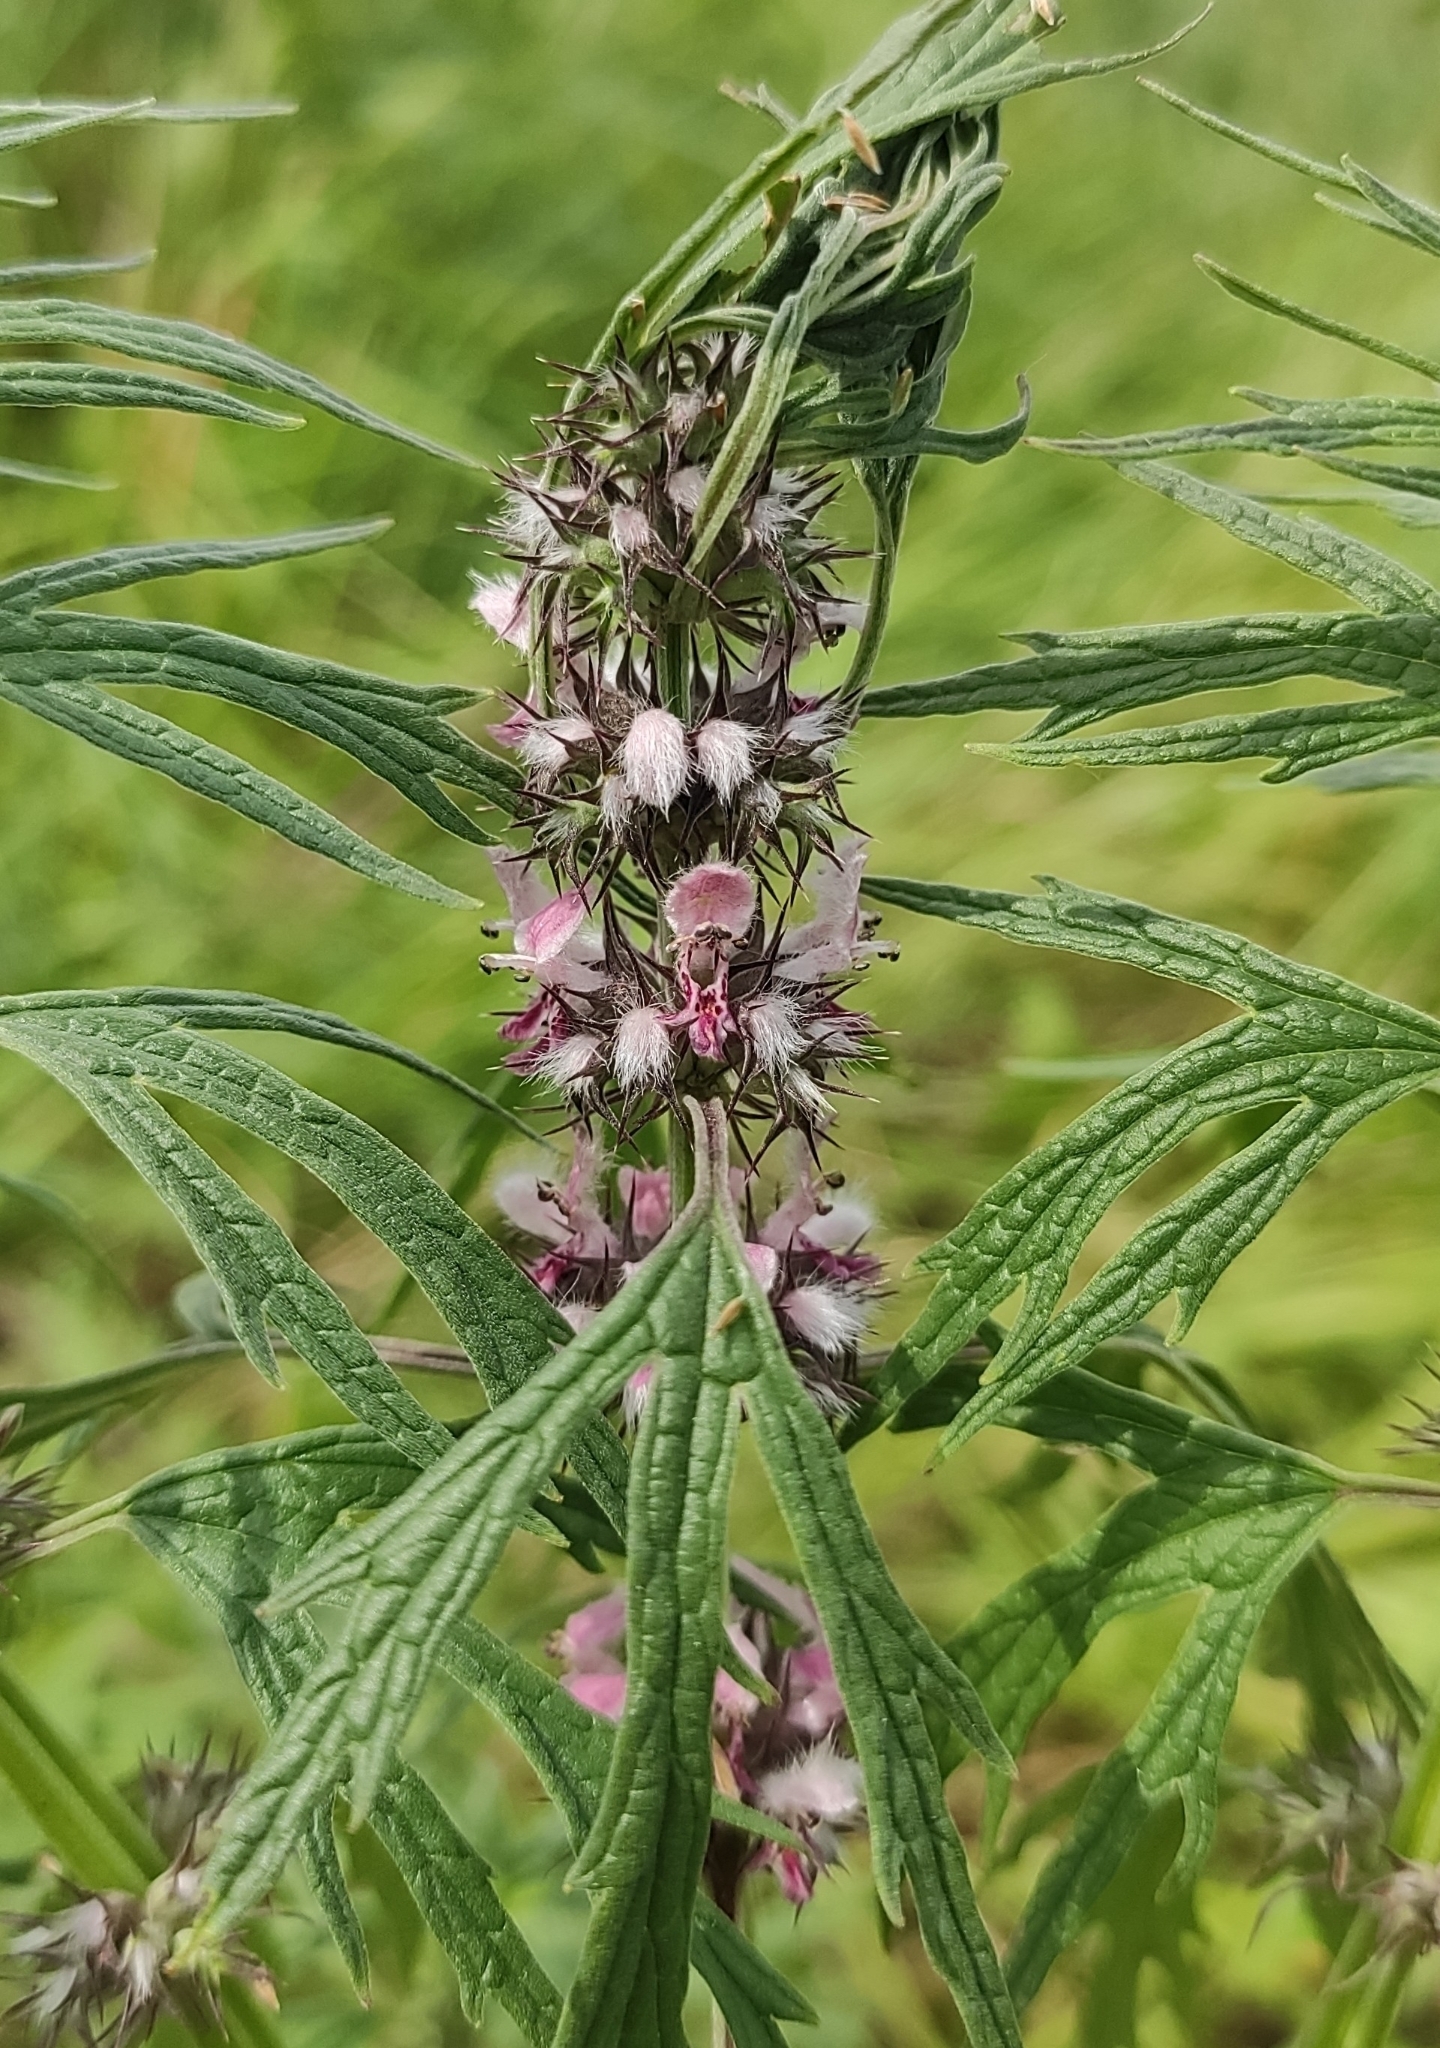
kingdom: Plantae
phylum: Tracheophyta
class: Magnoliopsida
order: Lamiales
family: Lamiaceae
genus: Leonurus
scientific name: Leonurus glaucescens
